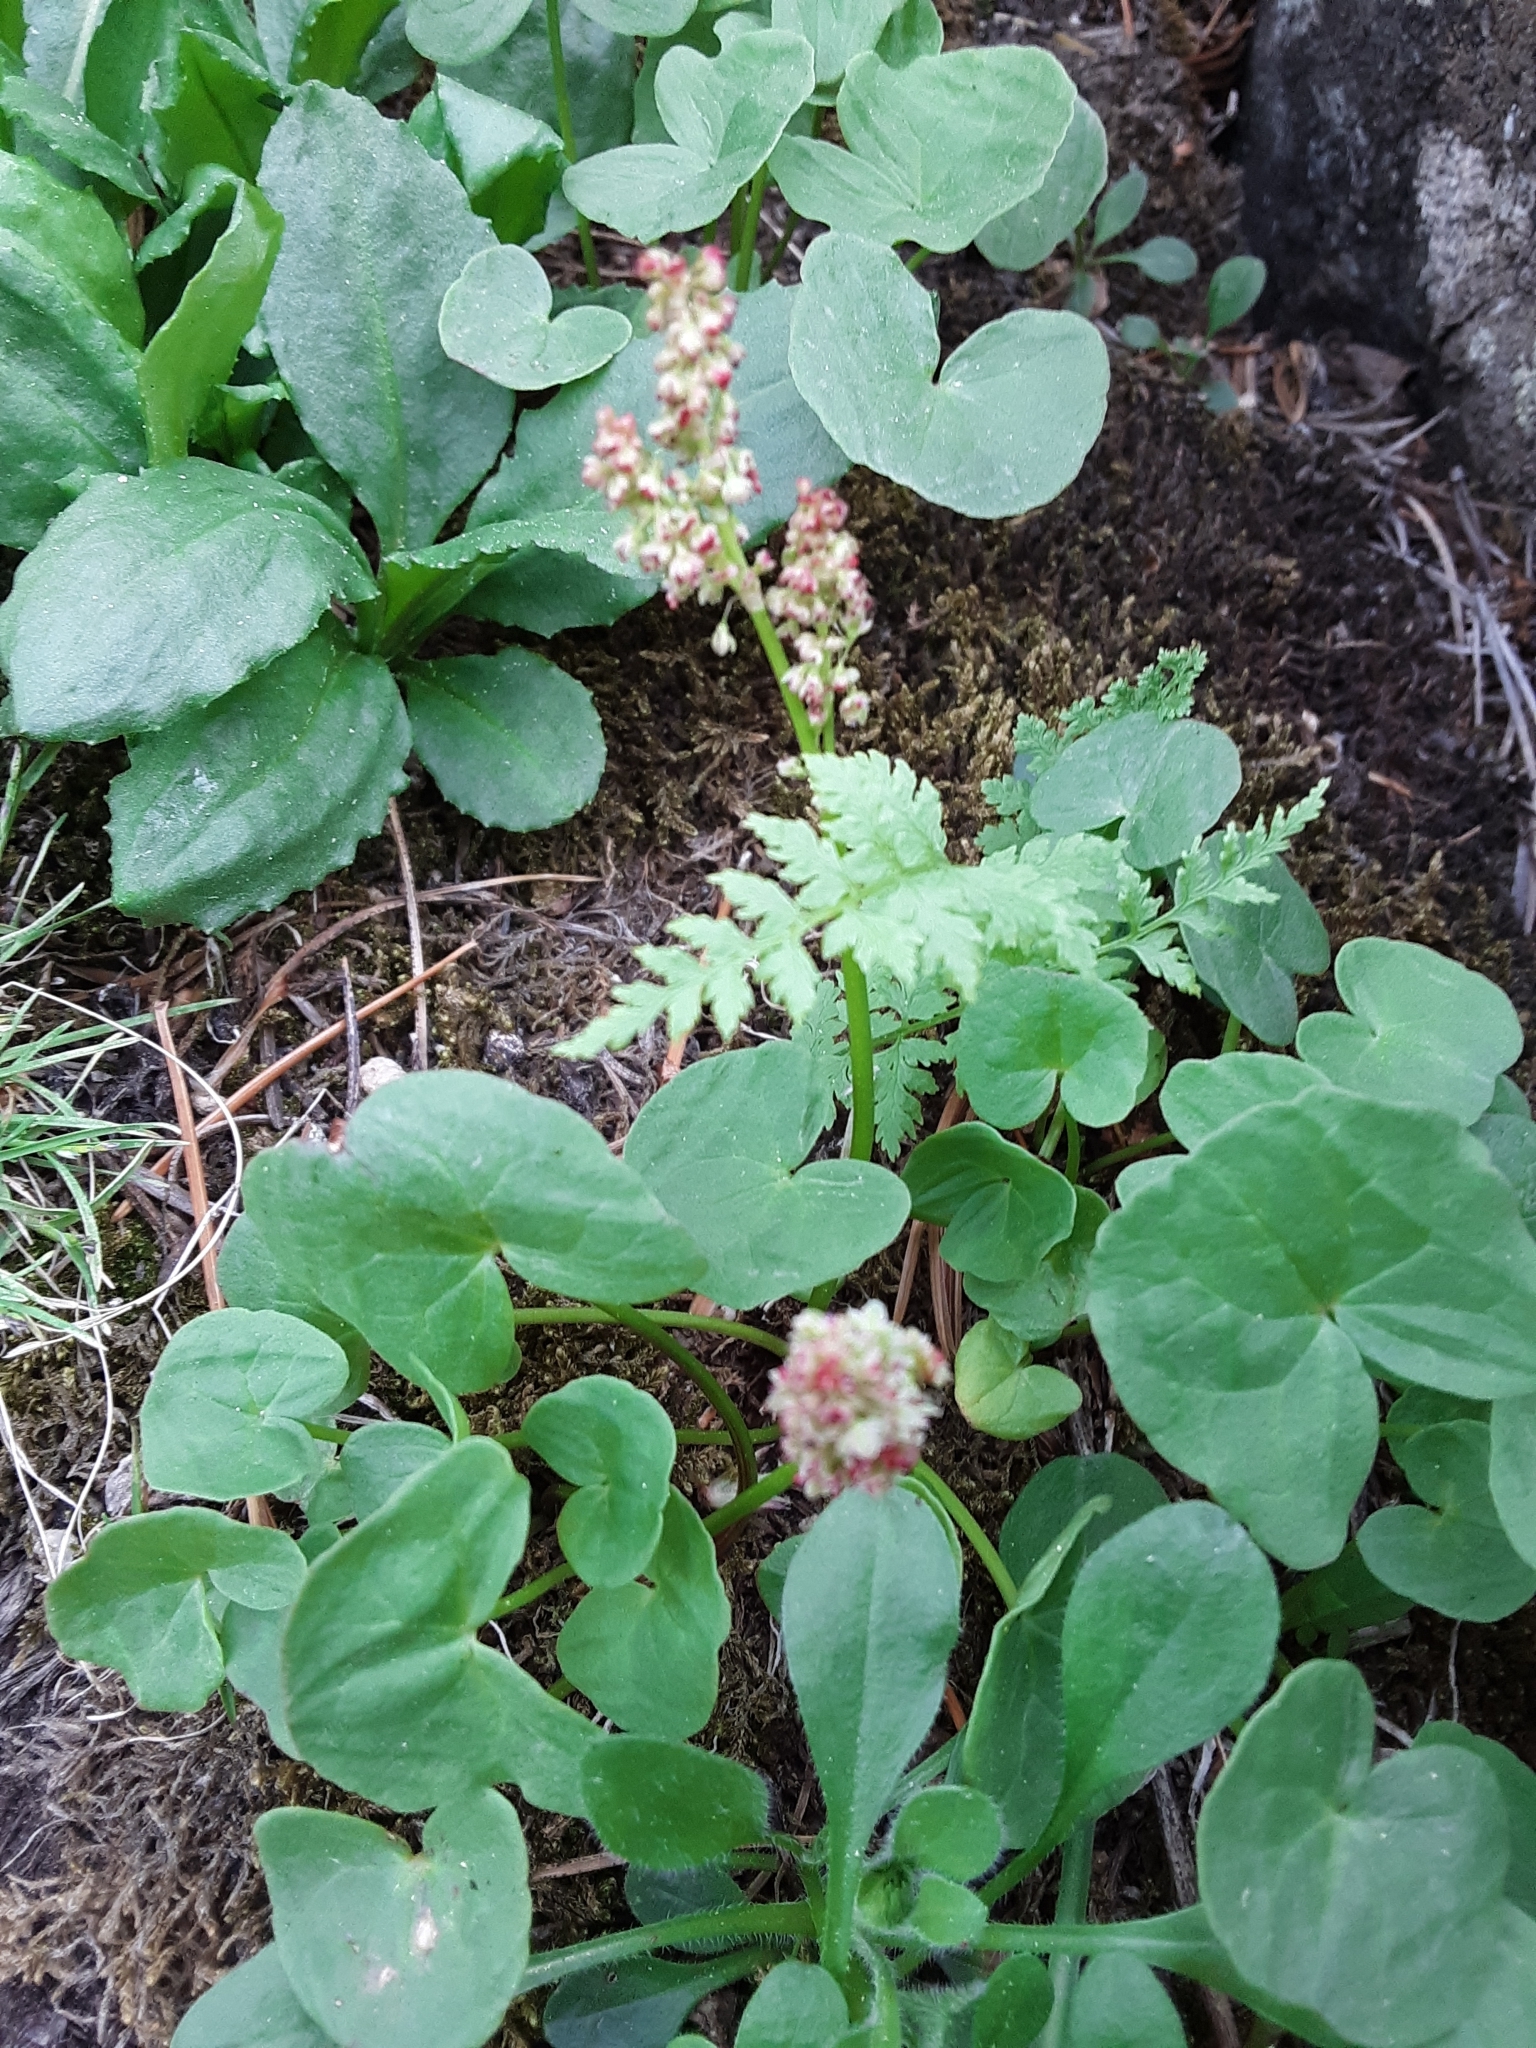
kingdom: Plantae
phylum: Tracheophyta
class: Magnoliopsida
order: Caryophyllales
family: Polygonaceae
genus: Oxyria
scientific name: Oxyria digyna
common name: Alpine mountain-sorrel
